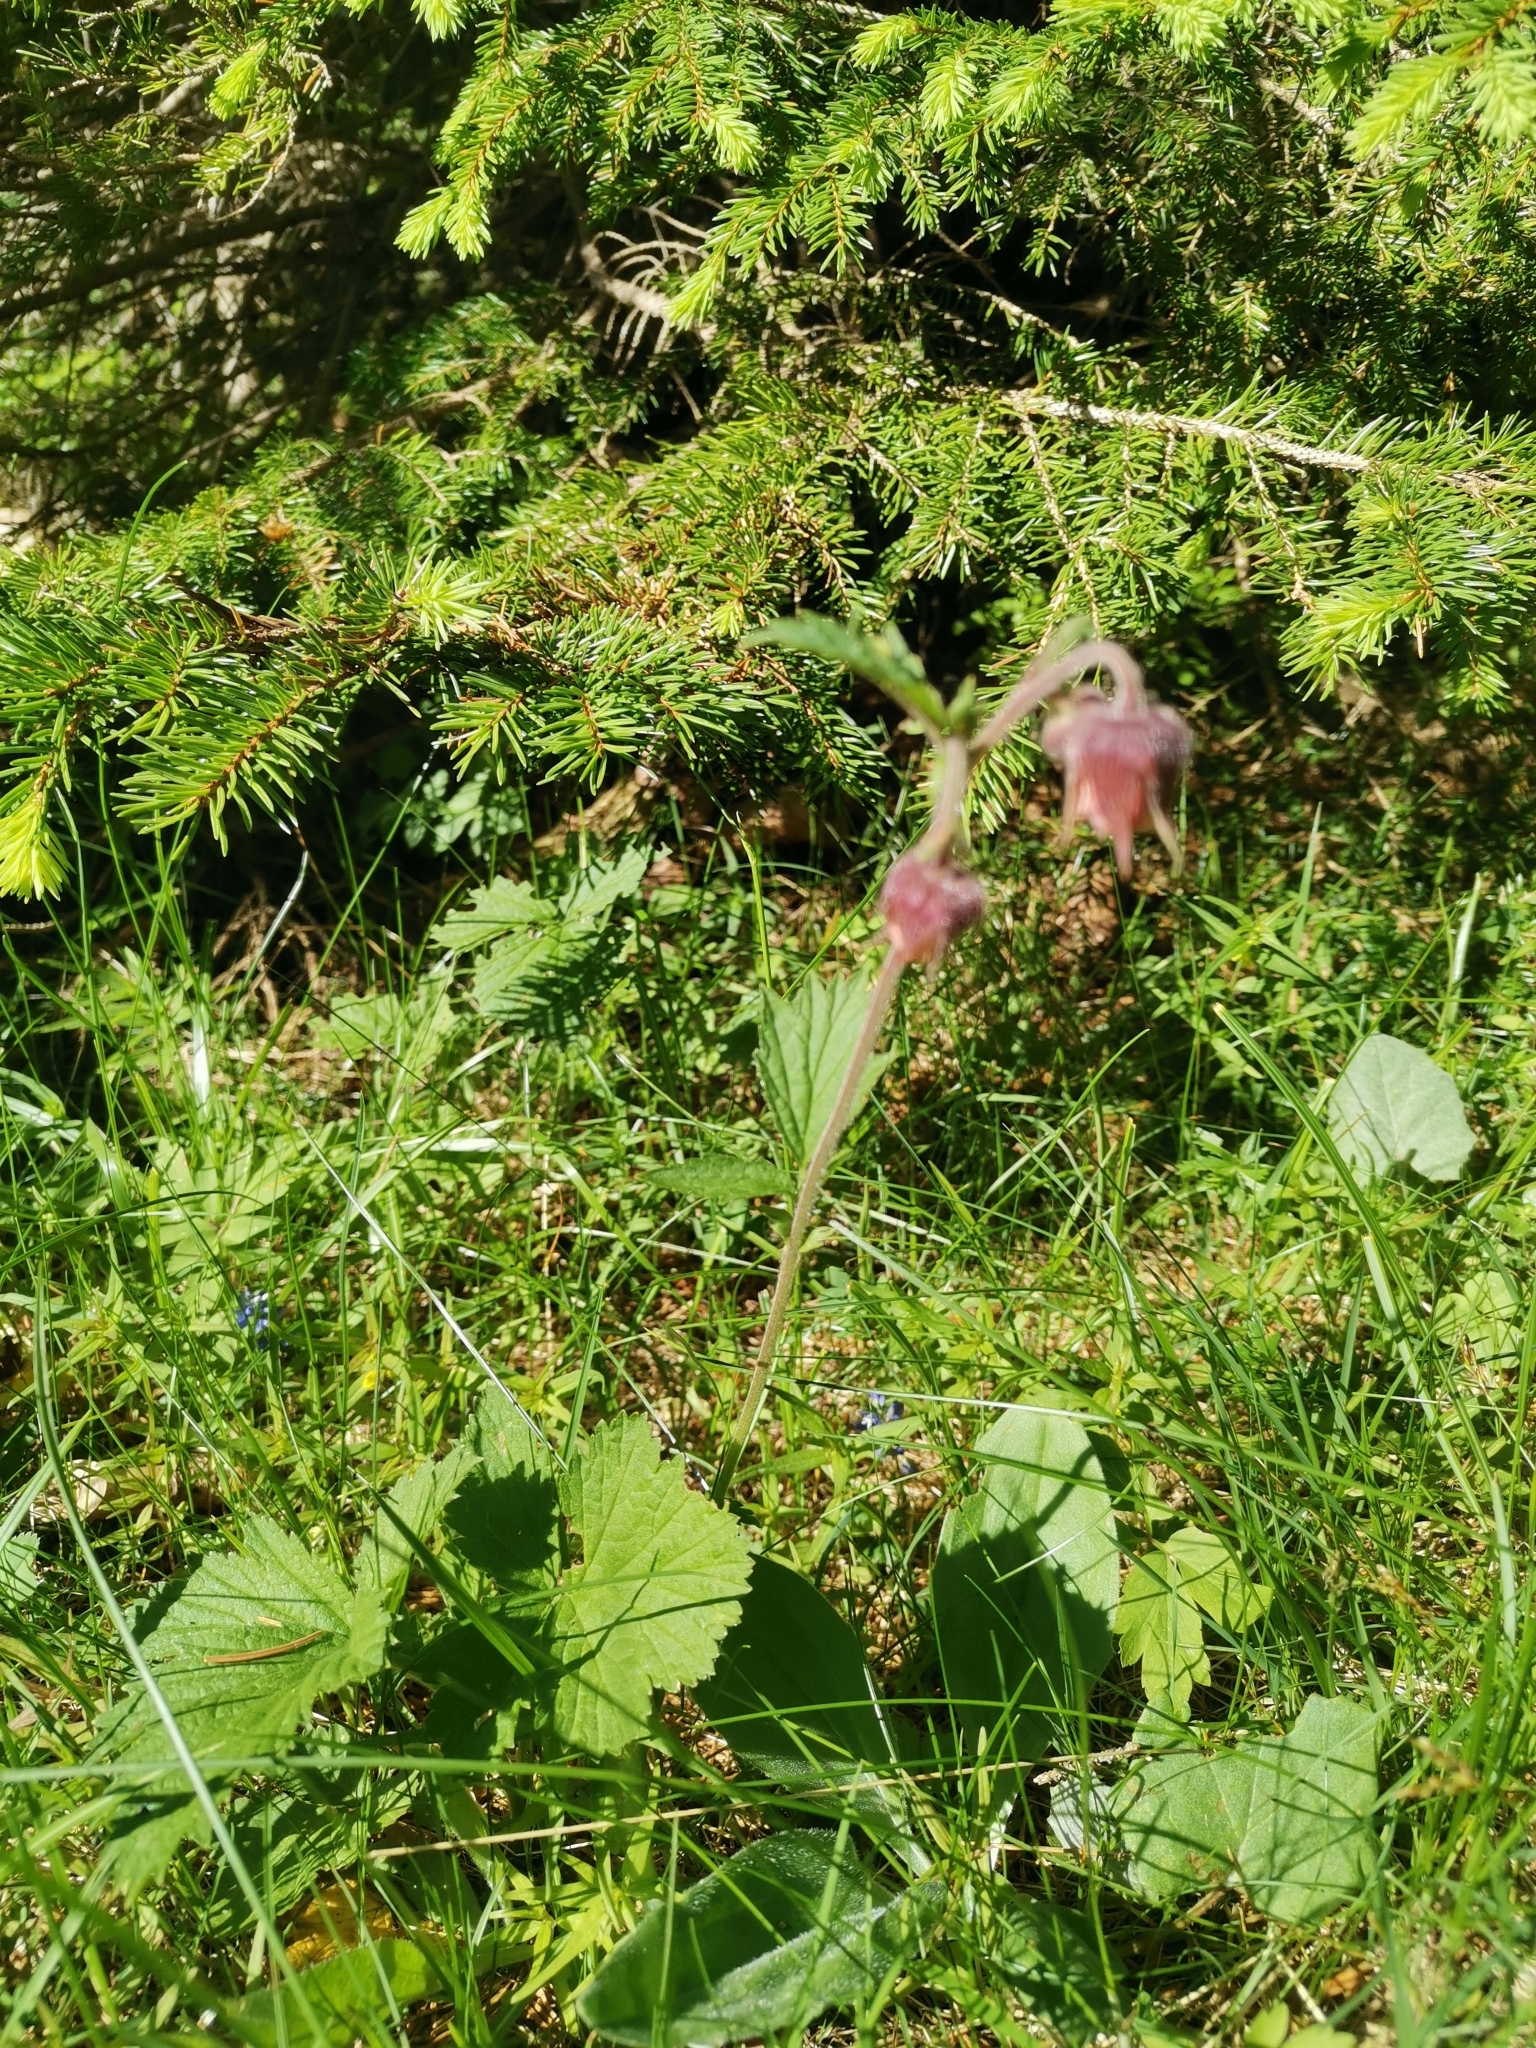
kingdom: Plantae
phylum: Tracheophyta
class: Magnoliopsida
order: Rosales
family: Rosaceae
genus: Geum
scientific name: Geum rivale
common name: Water avens
